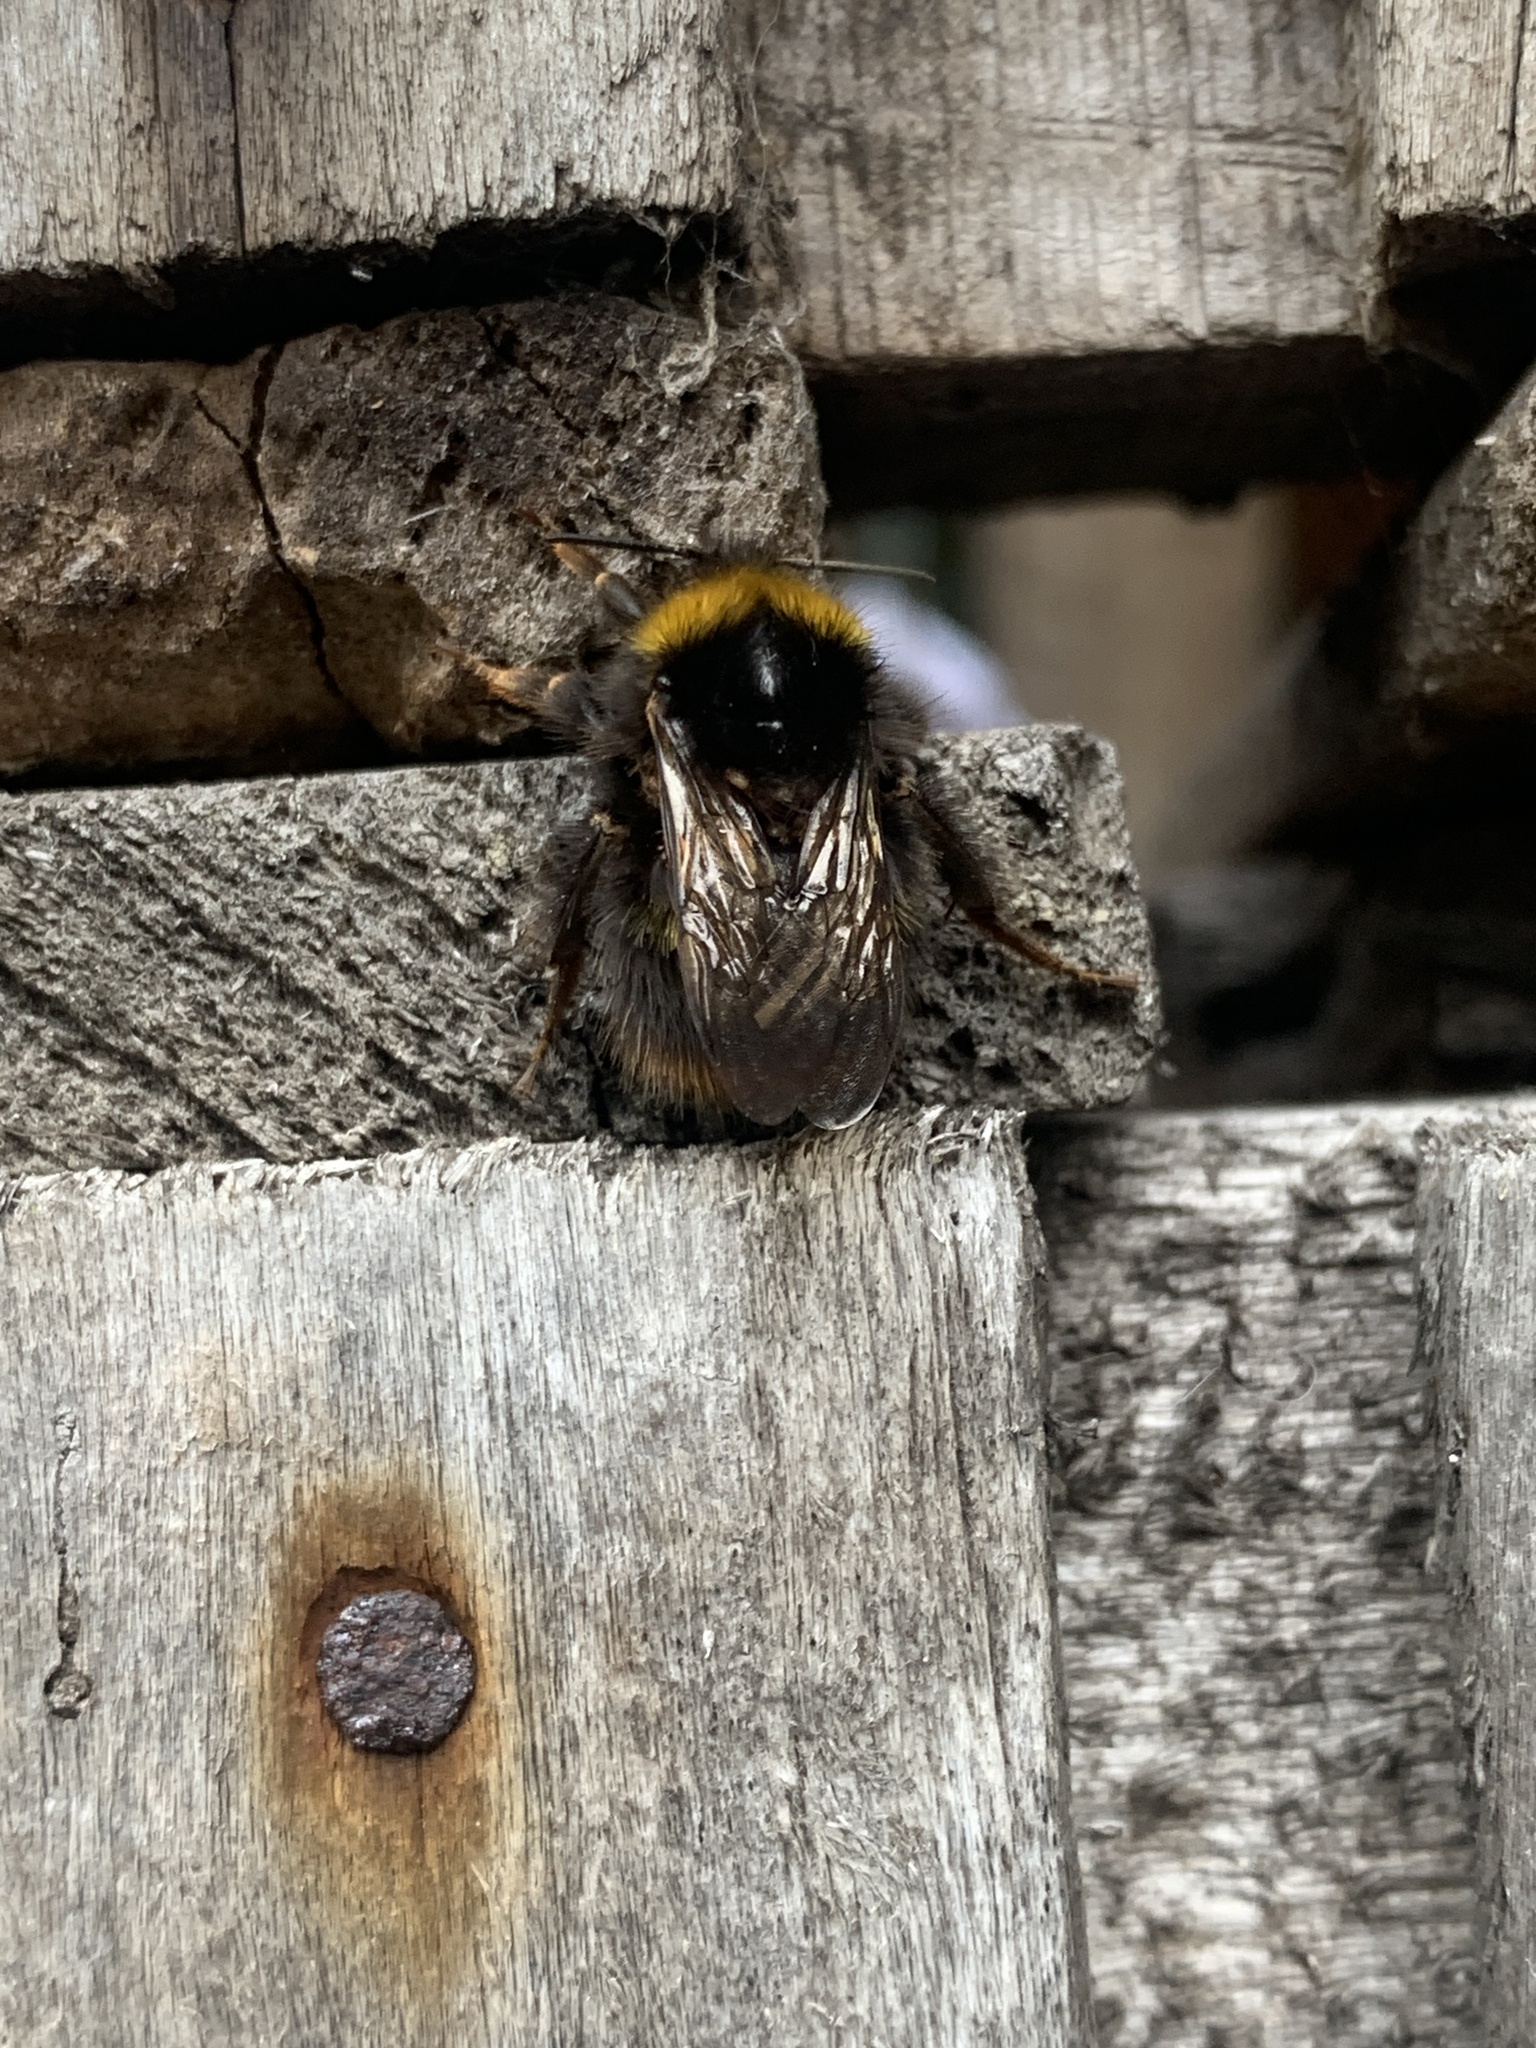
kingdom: Animalia
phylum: Arthropoda
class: Insecta
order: Hymenoptera
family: Apidae
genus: Bombus
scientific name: Bombus pratorum
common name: Early humble-bee
